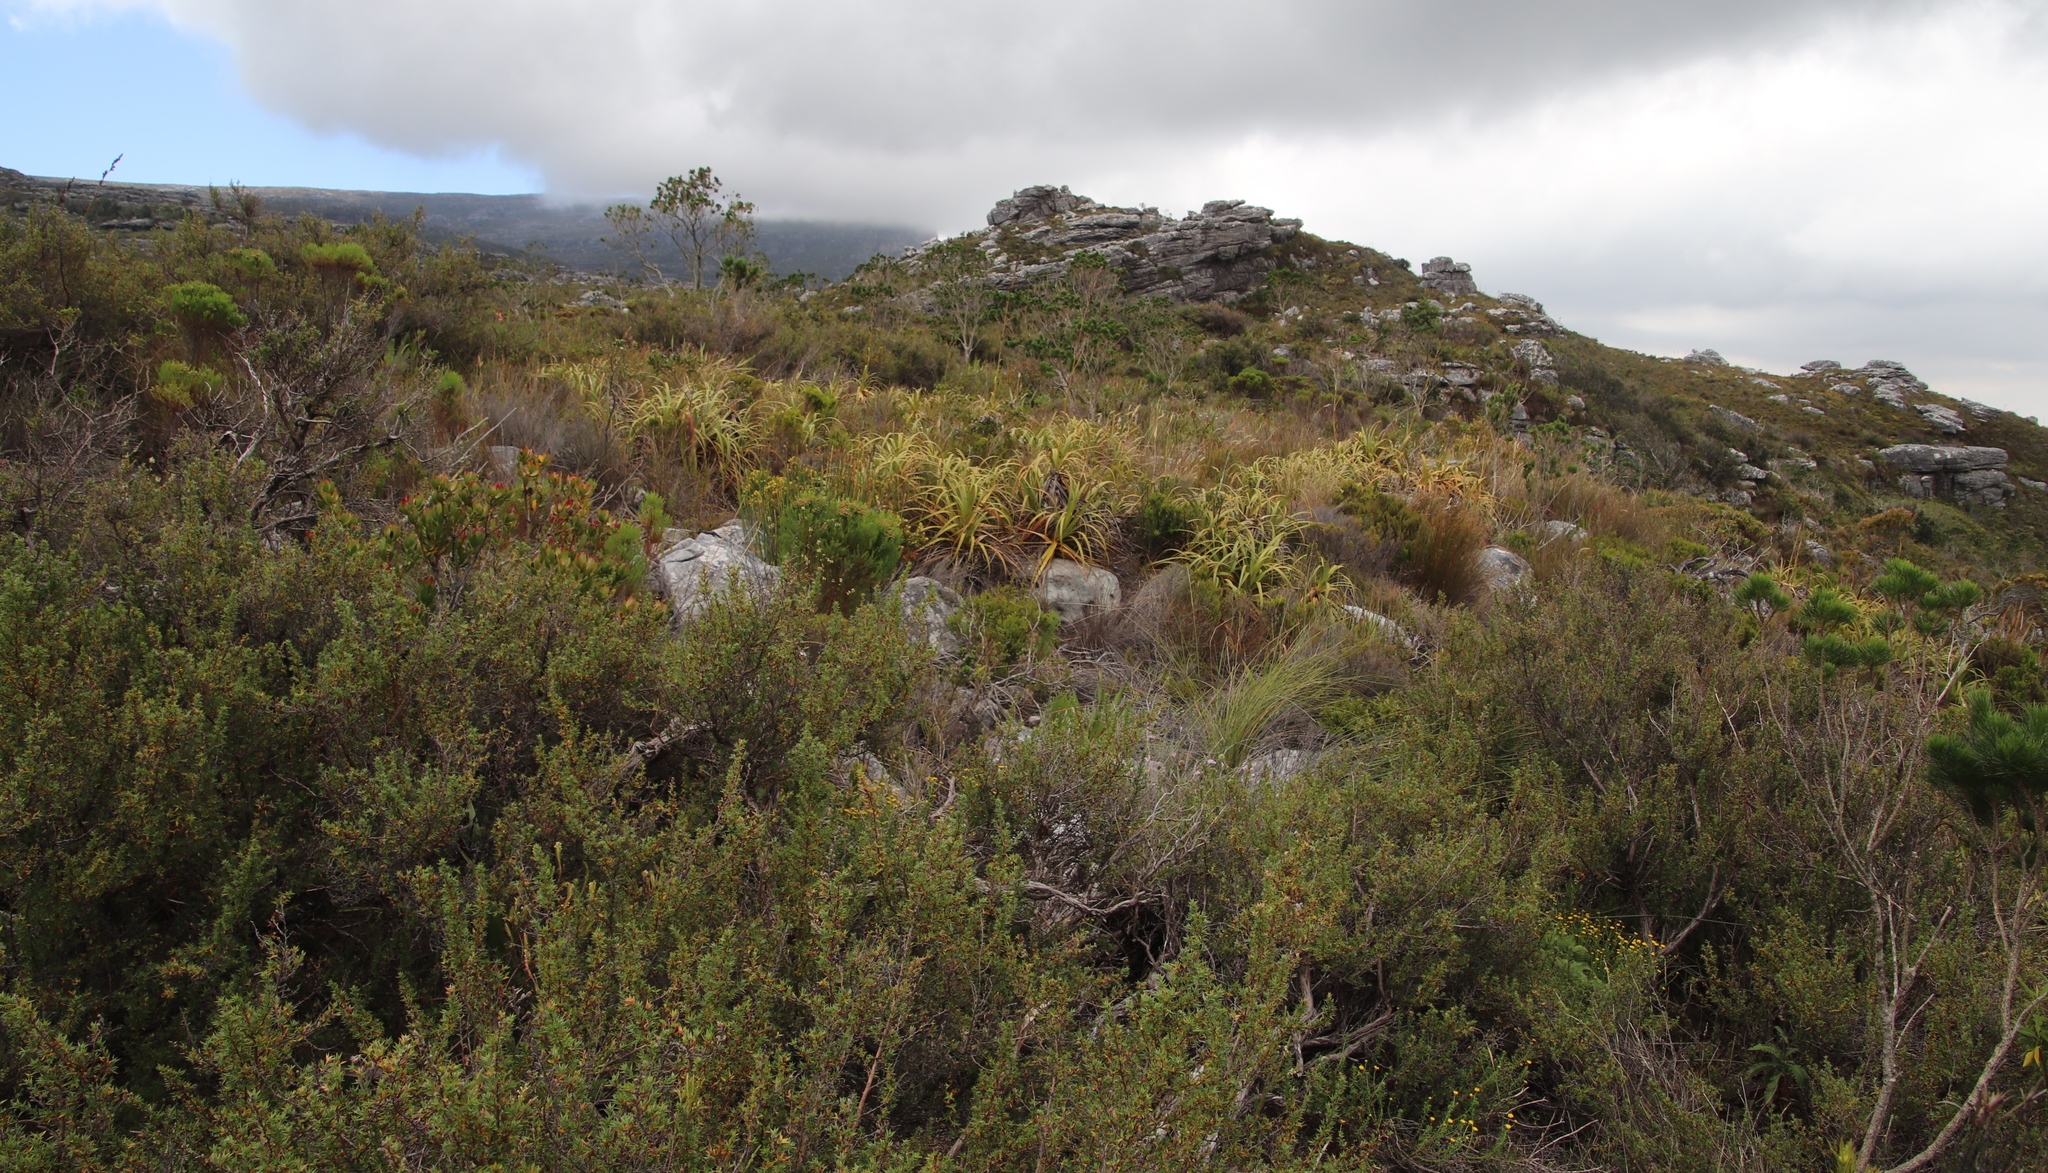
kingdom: Plantae
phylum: Tracheophyta
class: Liliopsida
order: Poales
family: Cyperaceae
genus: Tetraria
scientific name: Tetraria thermalis
